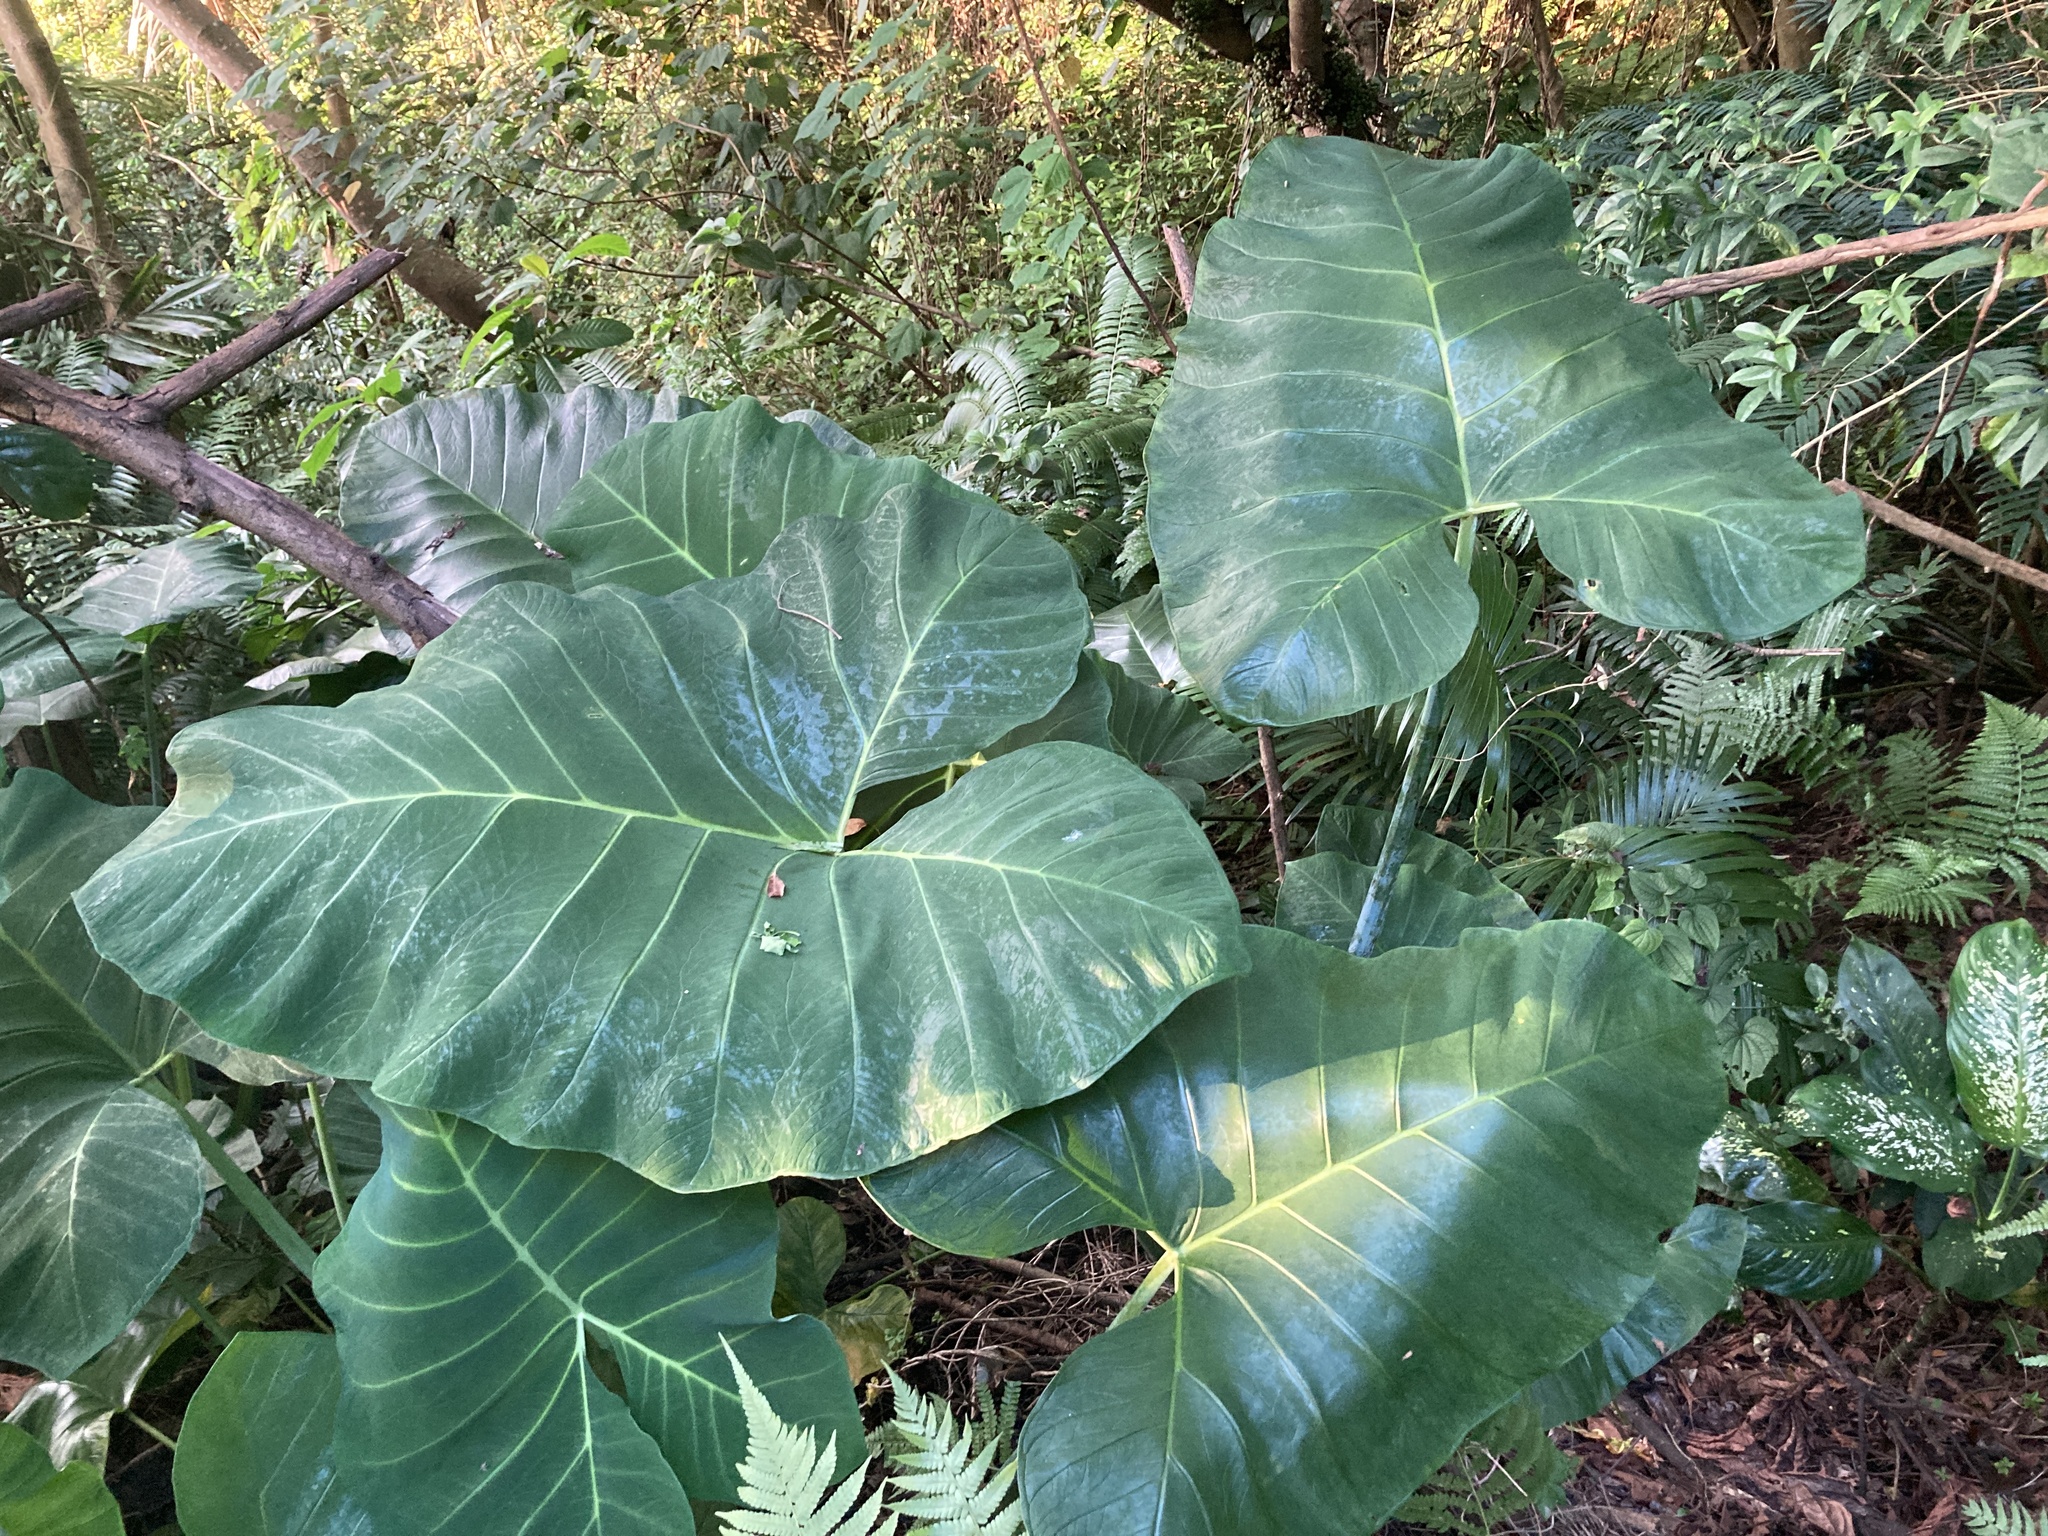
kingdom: Plantae
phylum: Tracheophyta
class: Liliopsida
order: Alismatales
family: Araceae
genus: Xanthosoma
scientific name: Xanthosoma sagittifolium
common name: Arrowleaf elephant's ear
